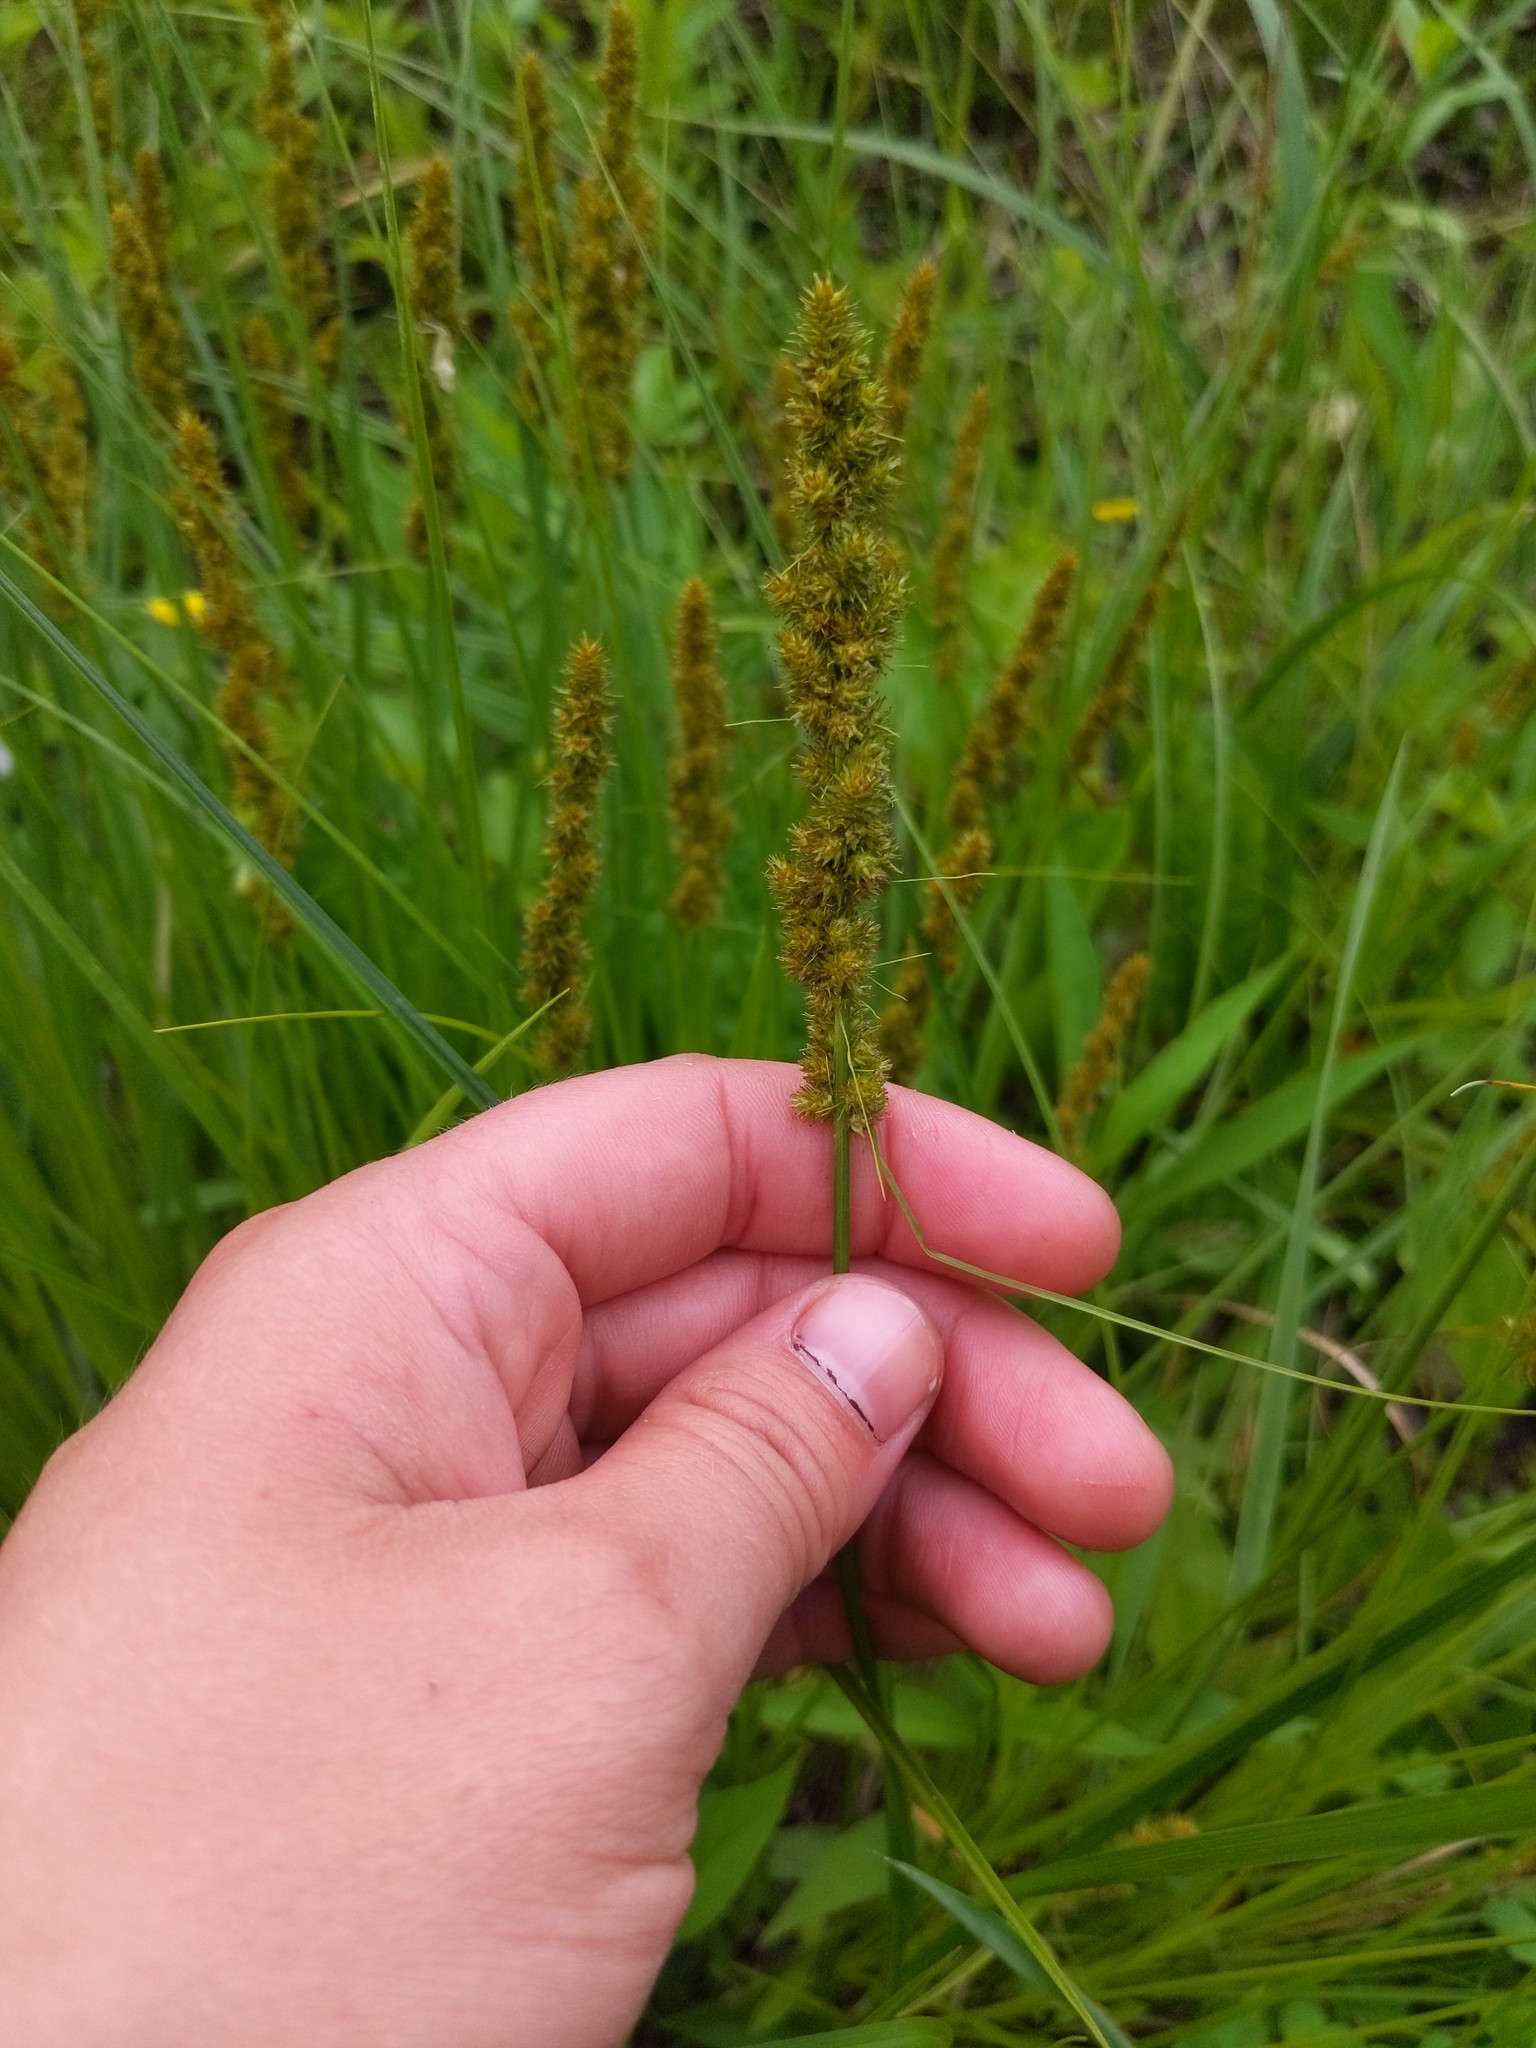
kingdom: Plantae
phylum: Tracheophyta
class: Liliopsida
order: Poales
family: Cyperaceae
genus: Carex
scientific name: Carex vulpinoidea
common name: American fox-sedge
